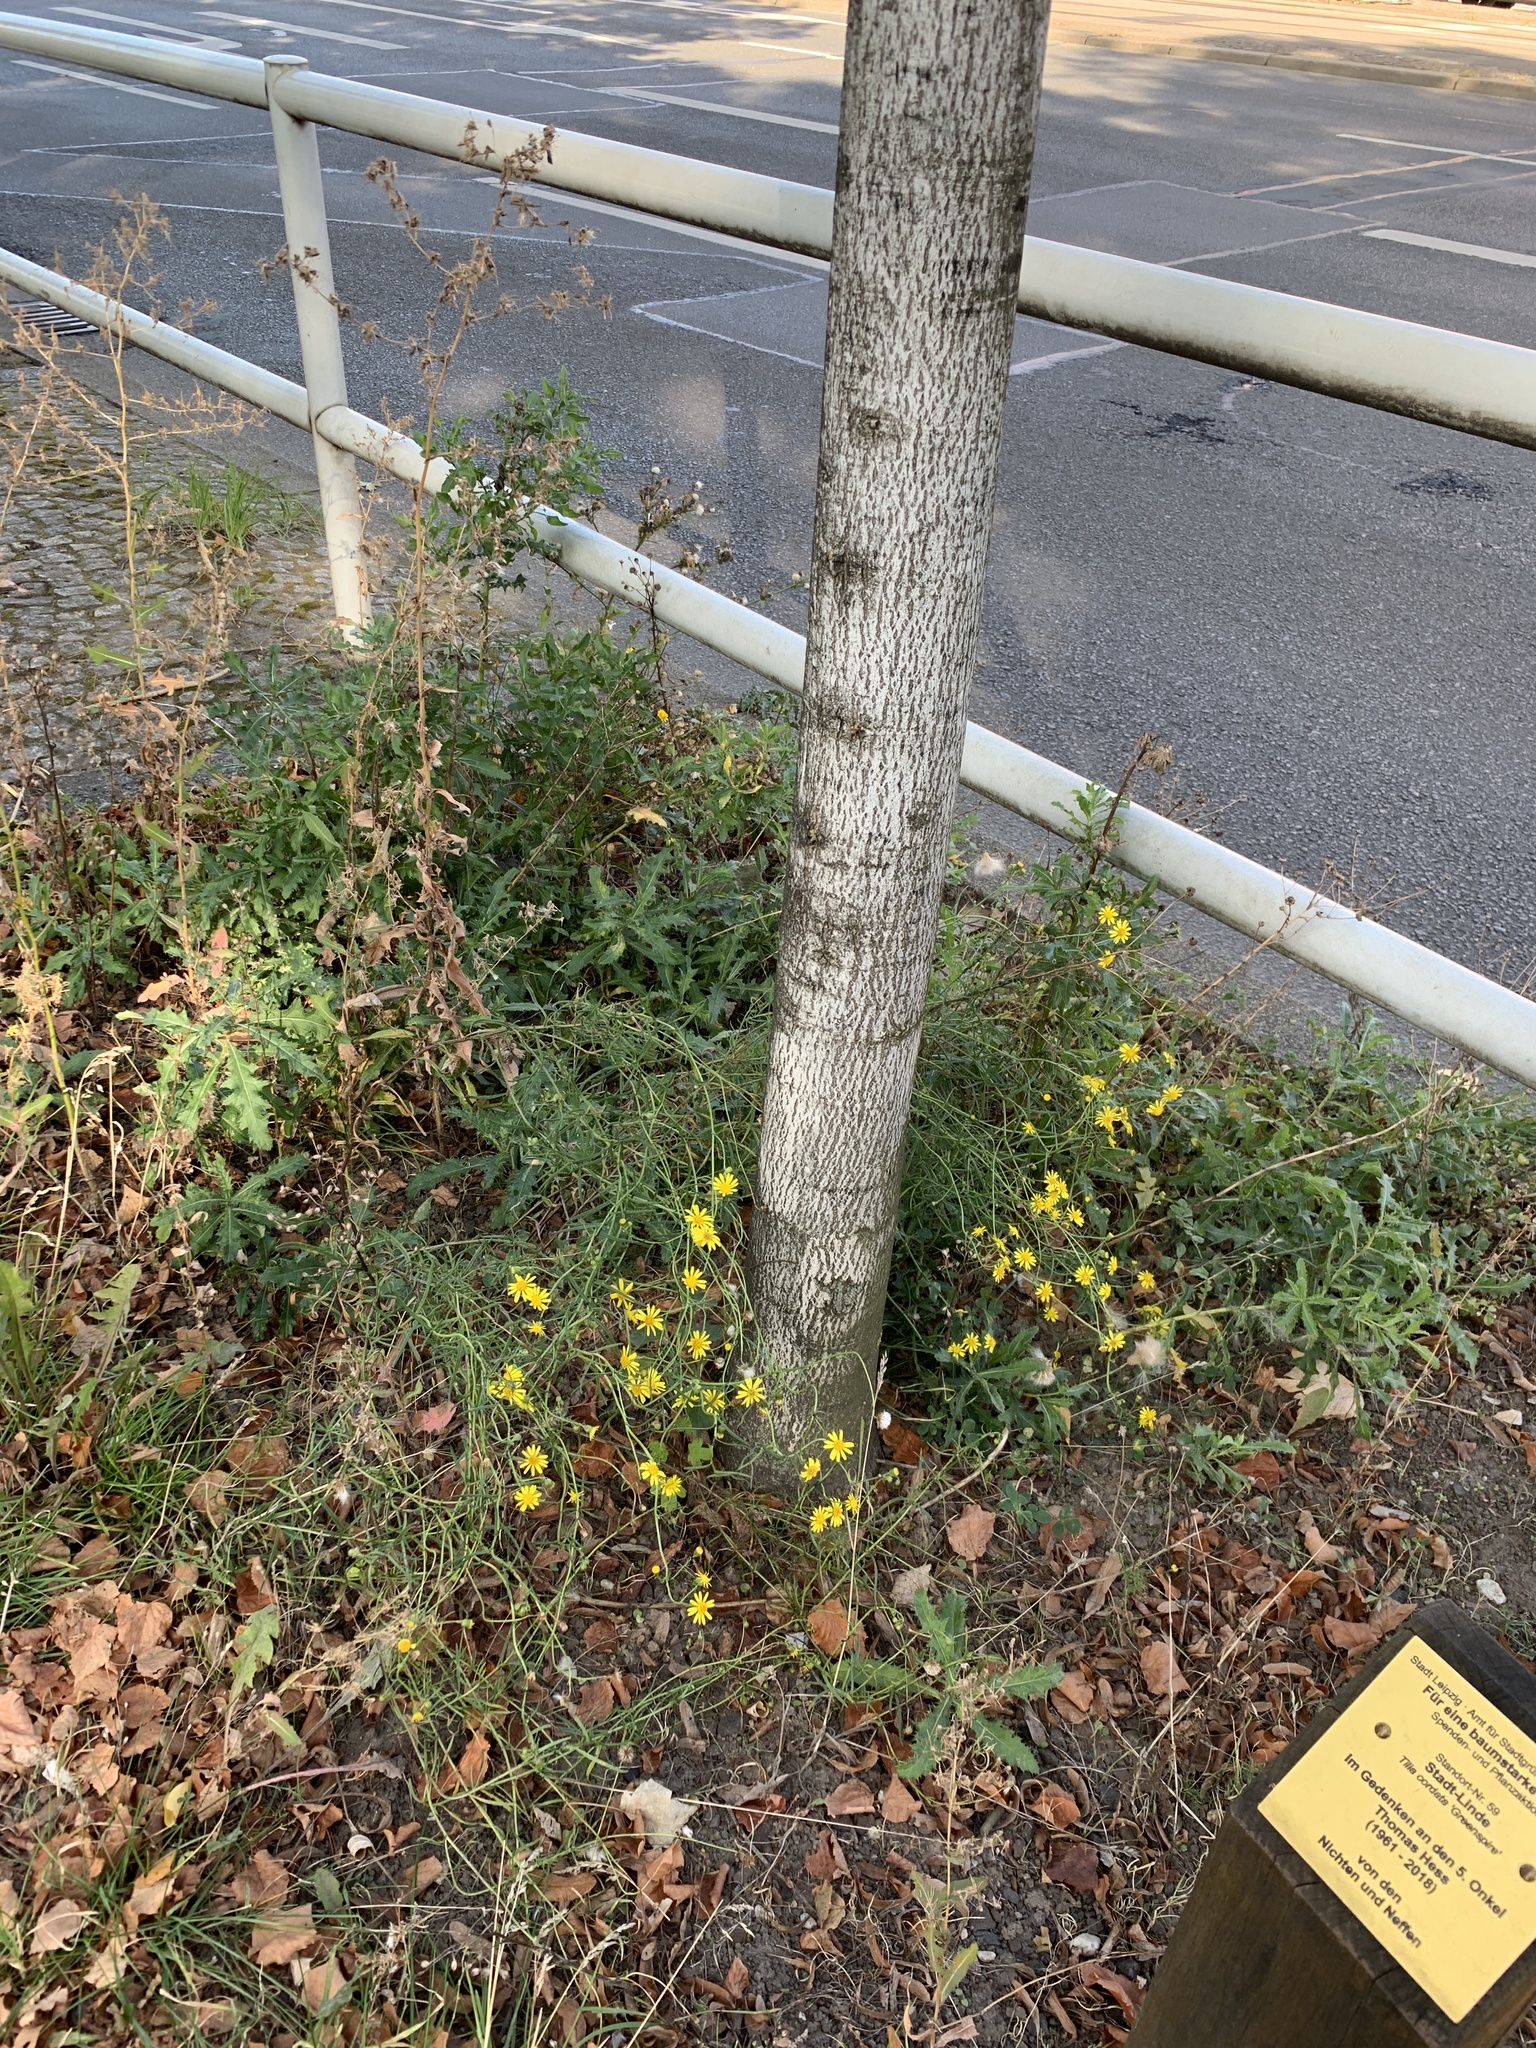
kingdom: Plantae
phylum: Tracheophyta
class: Magnoliopsida
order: Asterales
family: Asteraceae
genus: Senecio
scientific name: Senecio inaequidens
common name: Narrow-leaved ragwort
